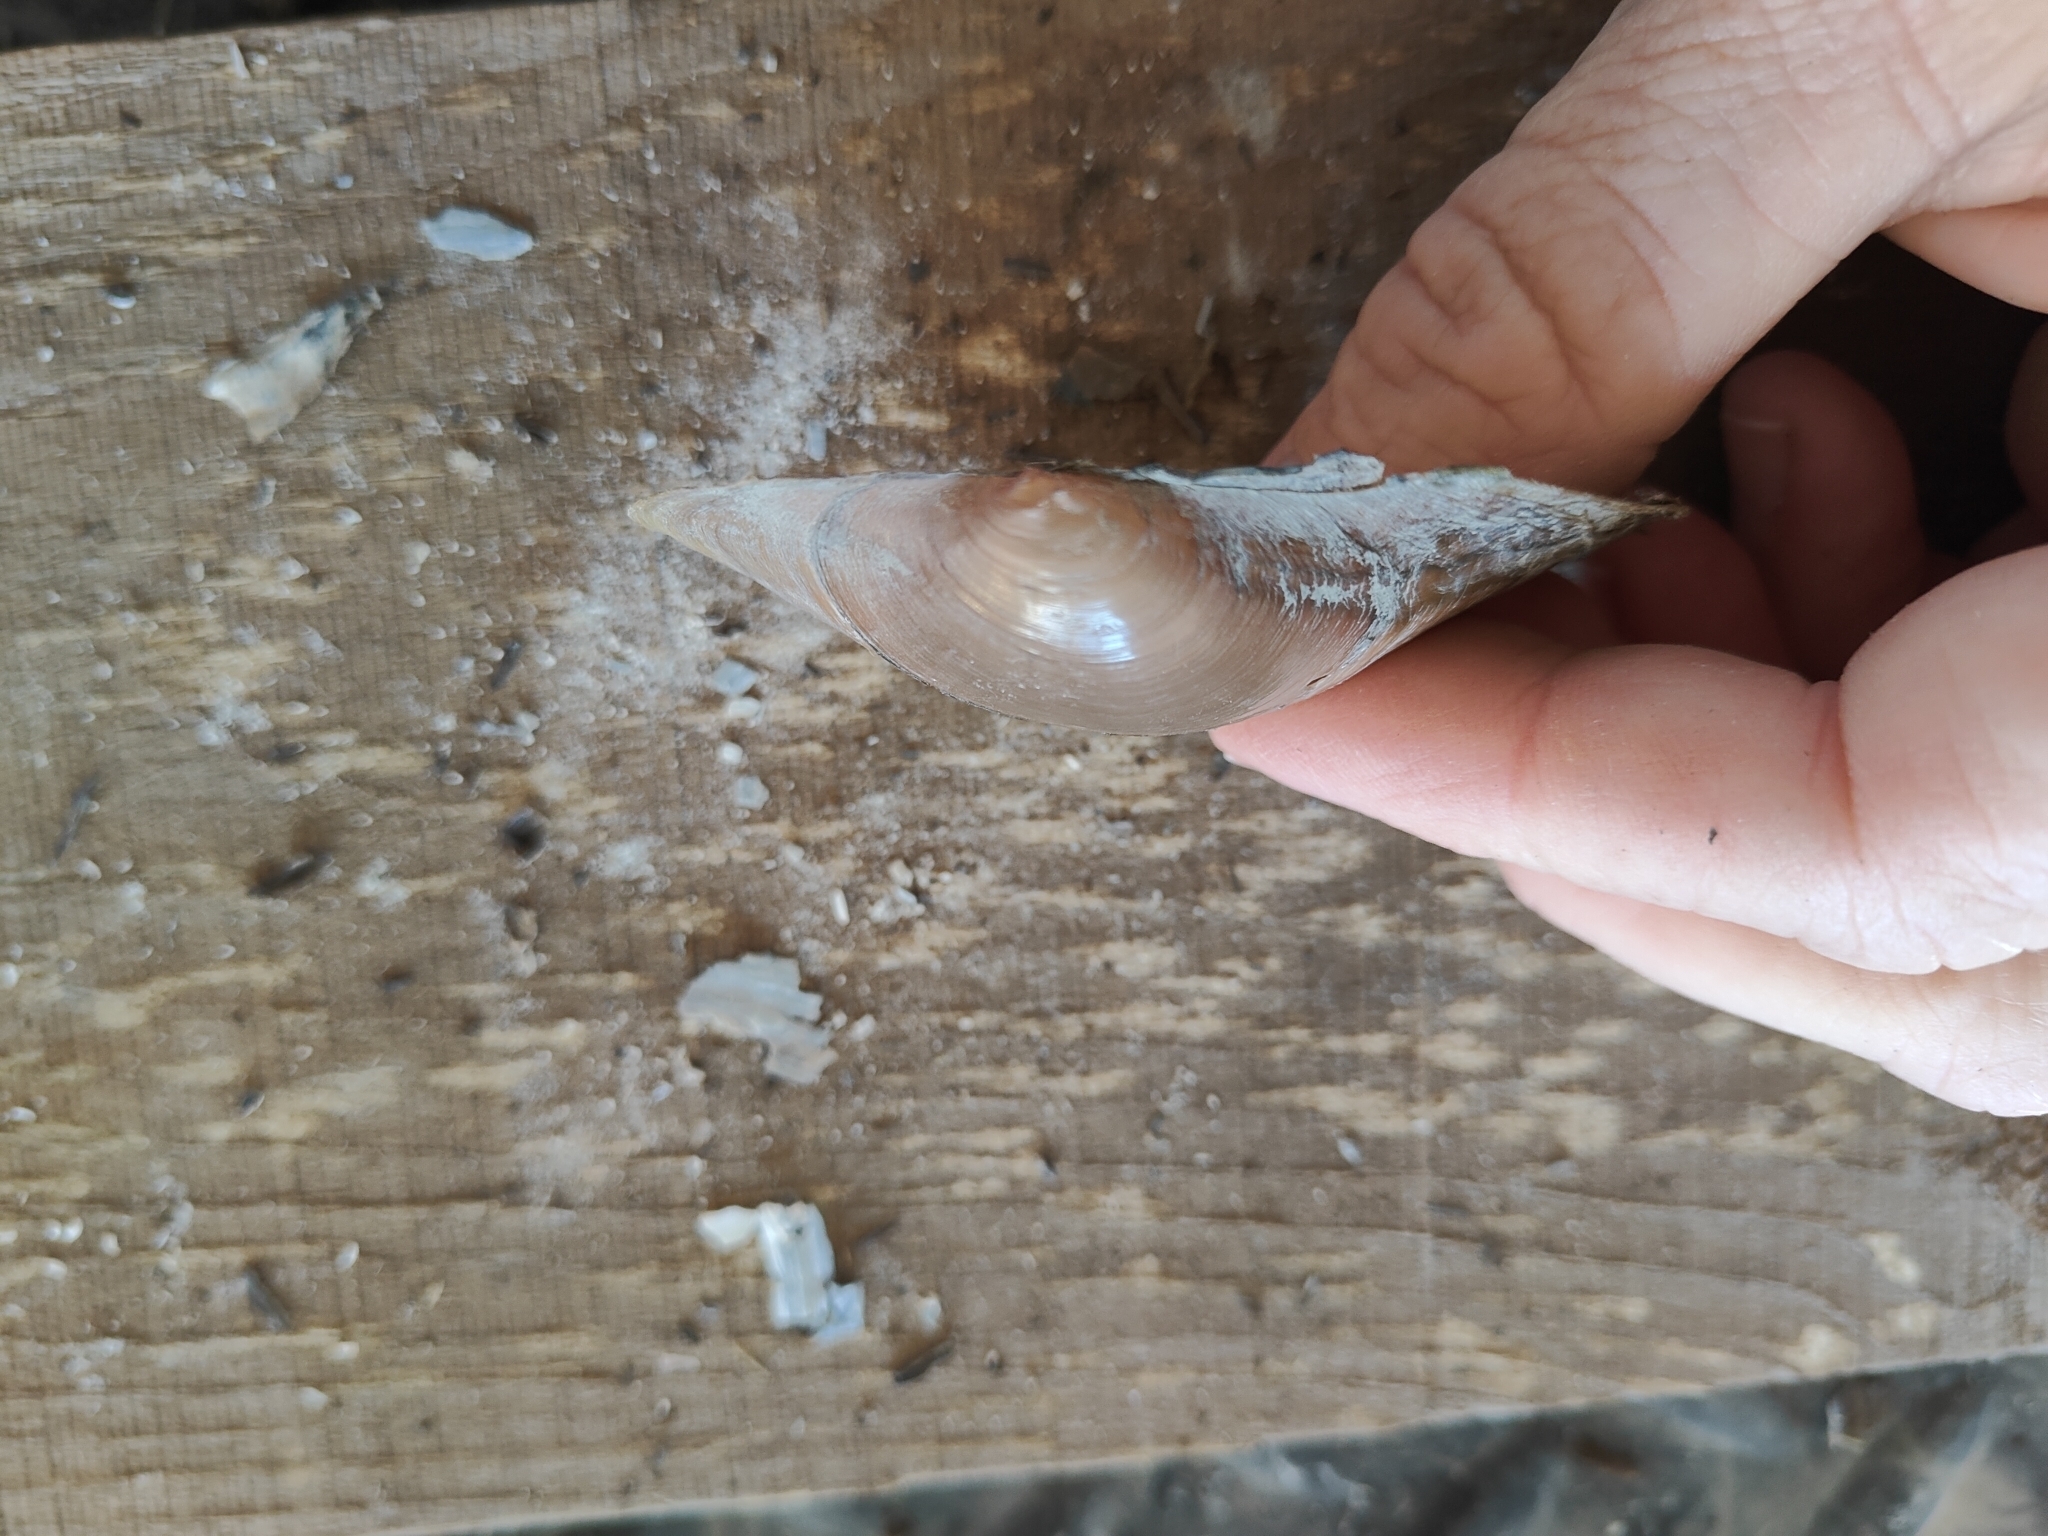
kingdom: Animalia
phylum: Mollusca
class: Bivalvia
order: Unionida
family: Unionidae
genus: Pyganodon
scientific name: Pyganodon grandis
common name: Giant floater
